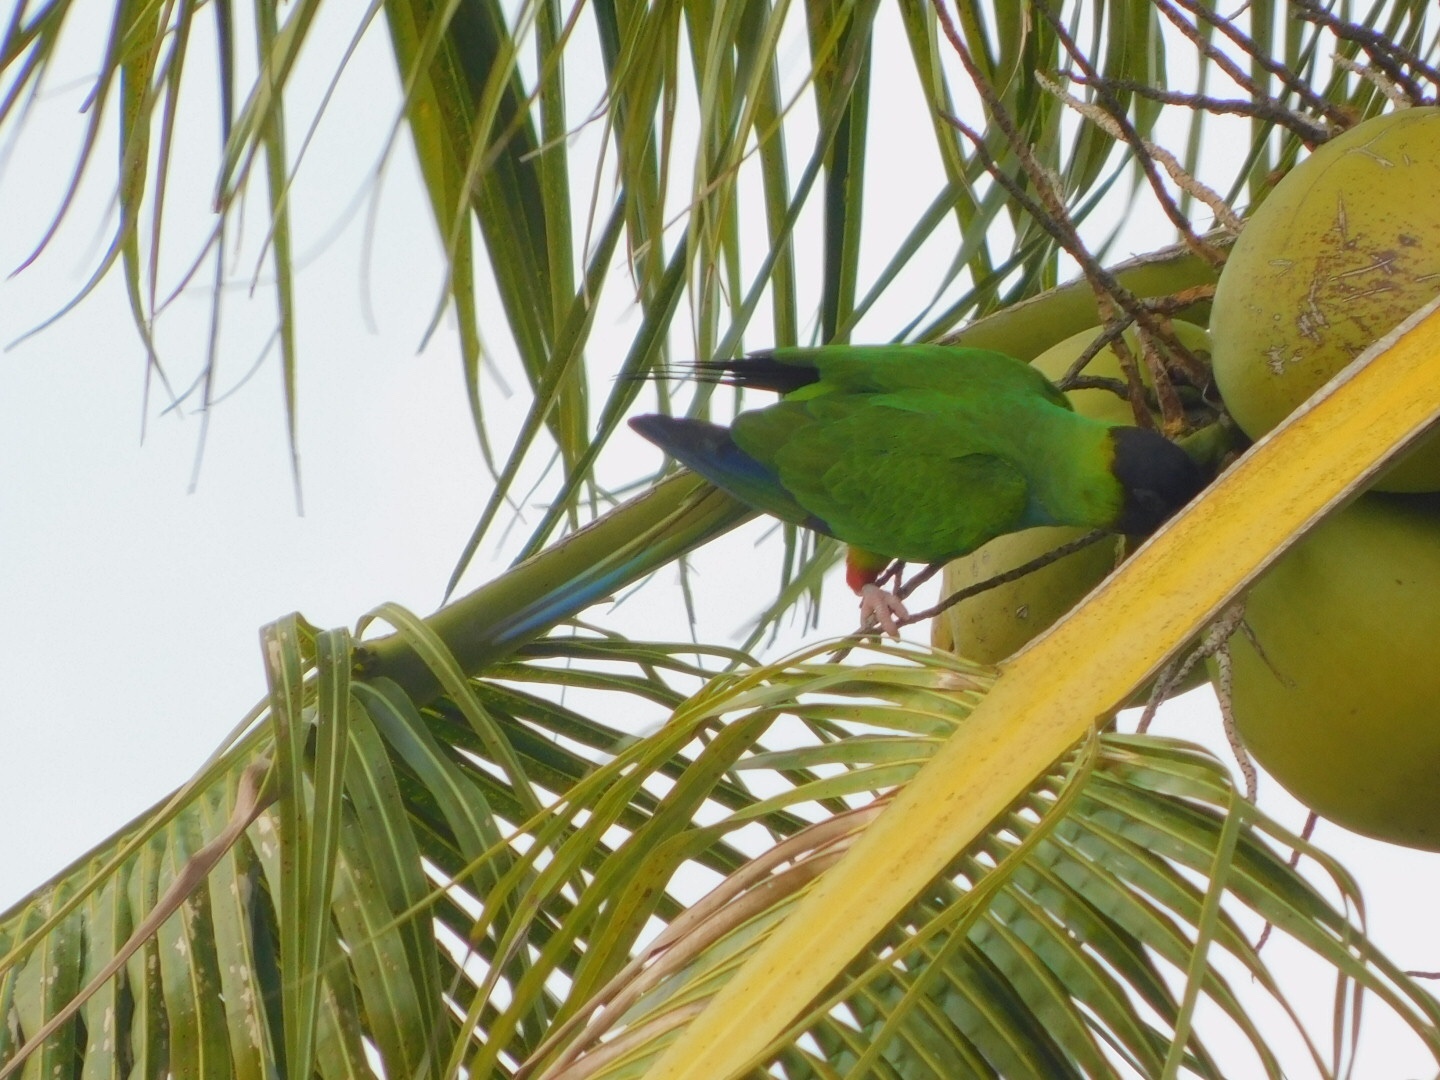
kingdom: Animalia
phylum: Chordata
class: Aves
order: Psittaciformes
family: Psittacidae
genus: Nandayus
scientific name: Nandayus nenday
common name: Nanday parakeet
